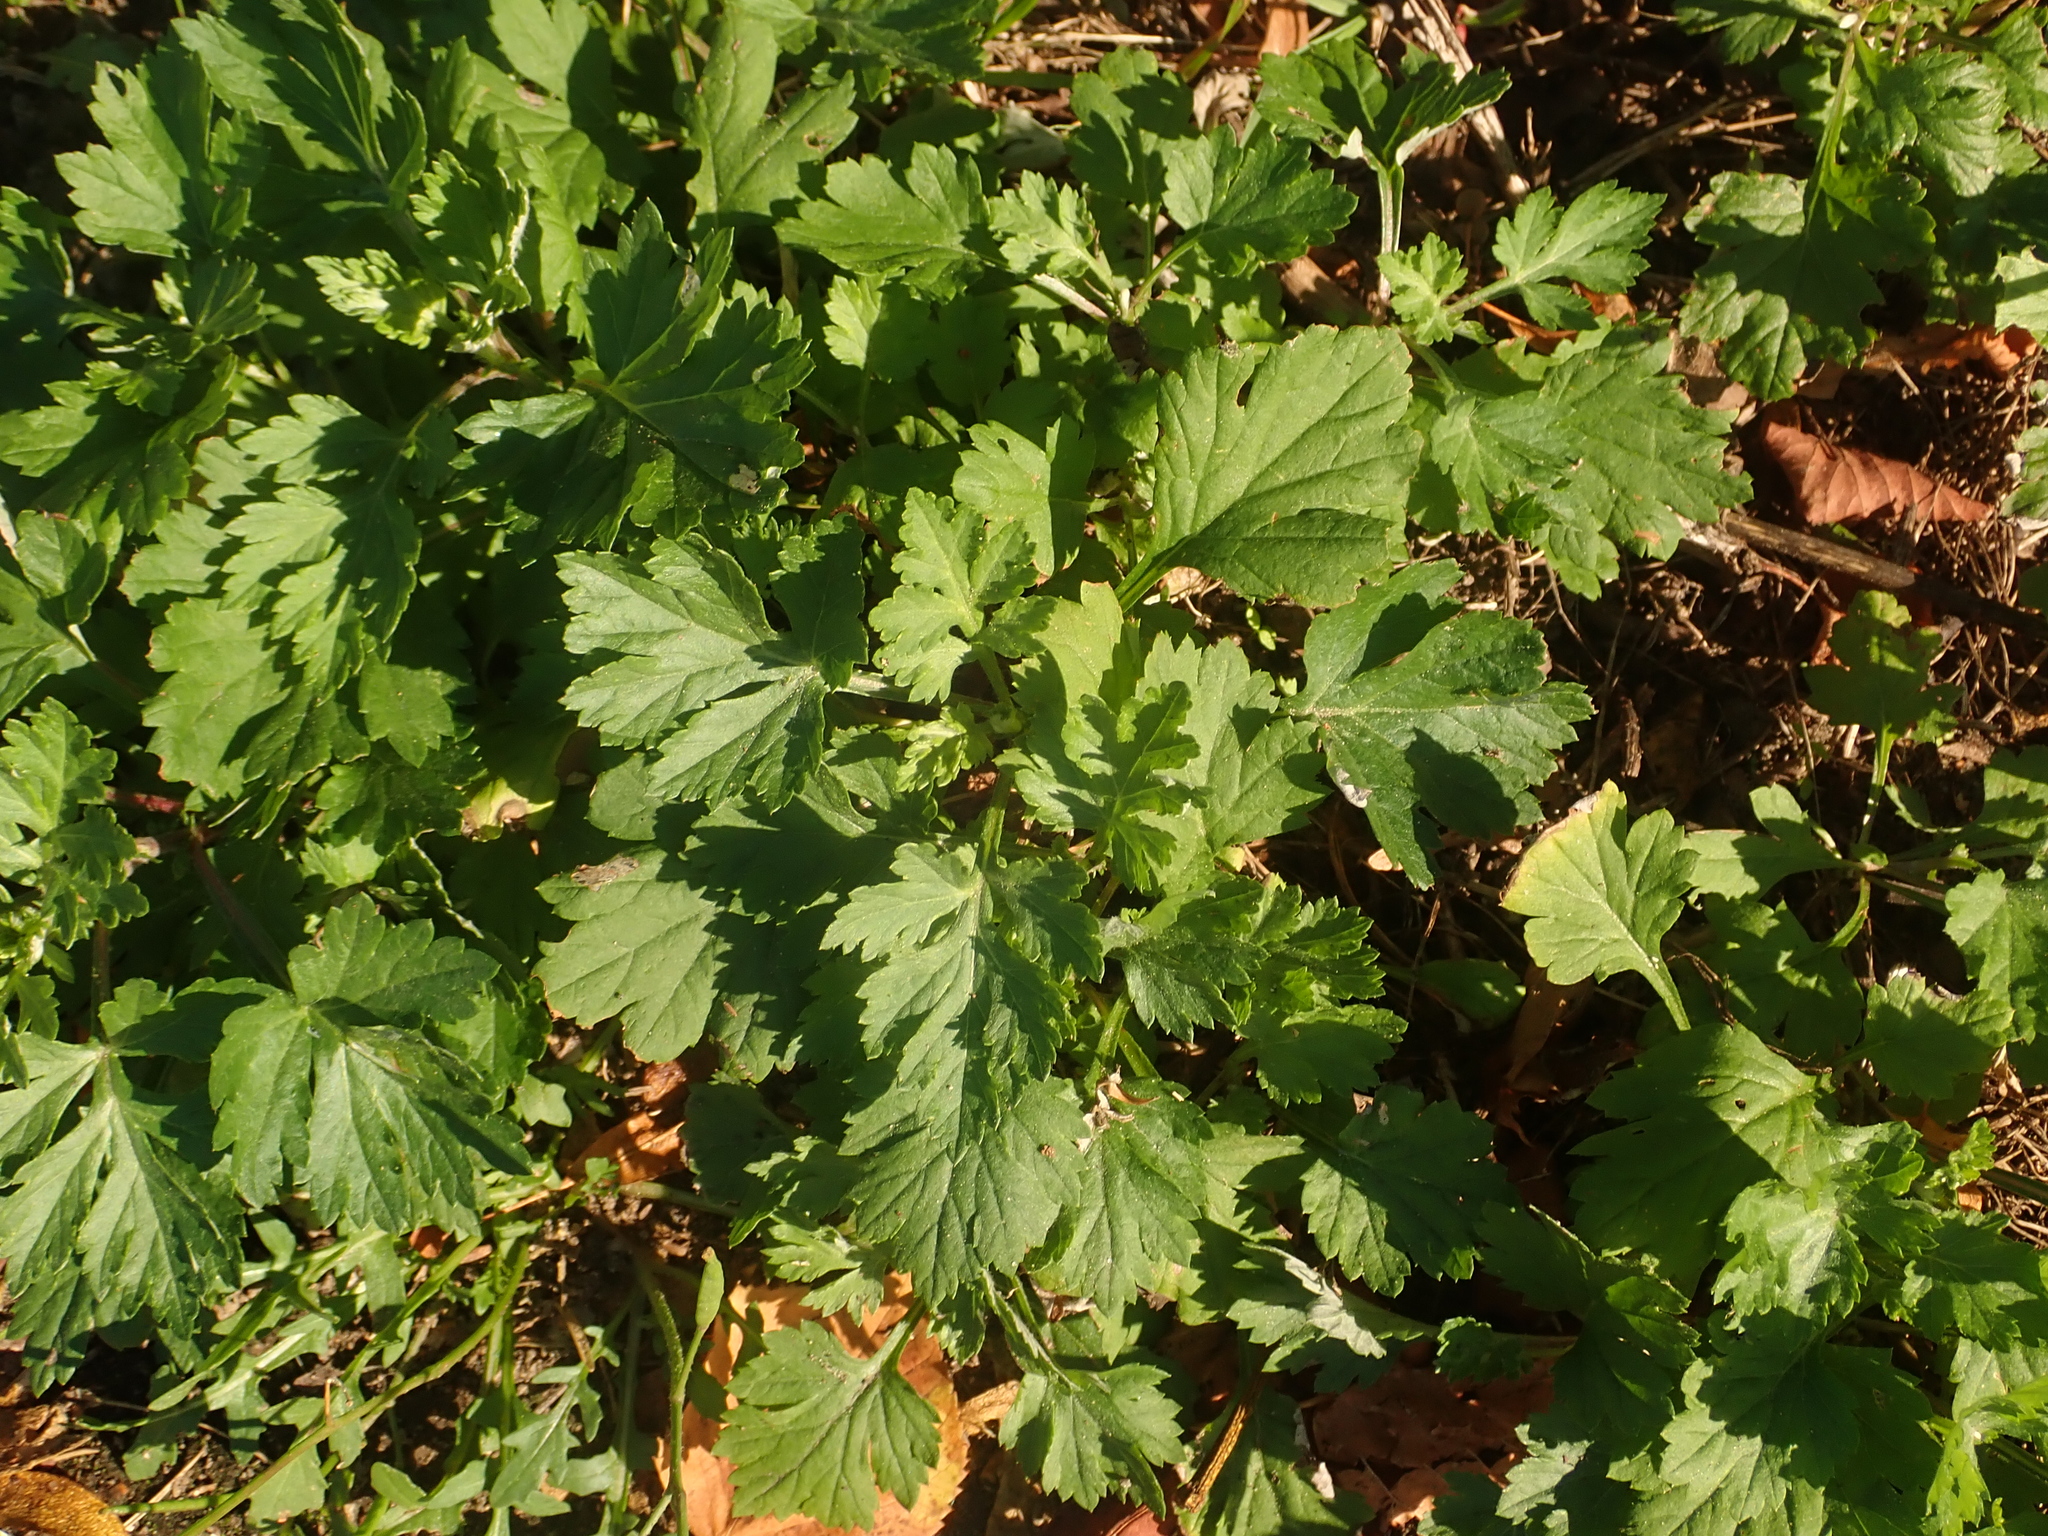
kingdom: Plantae
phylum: Tracheophyta
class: Magnoliopsida
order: Asterales
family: Asteraceae
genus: Artemisia
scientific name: Artemisia vulgaris
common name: Mugwort
